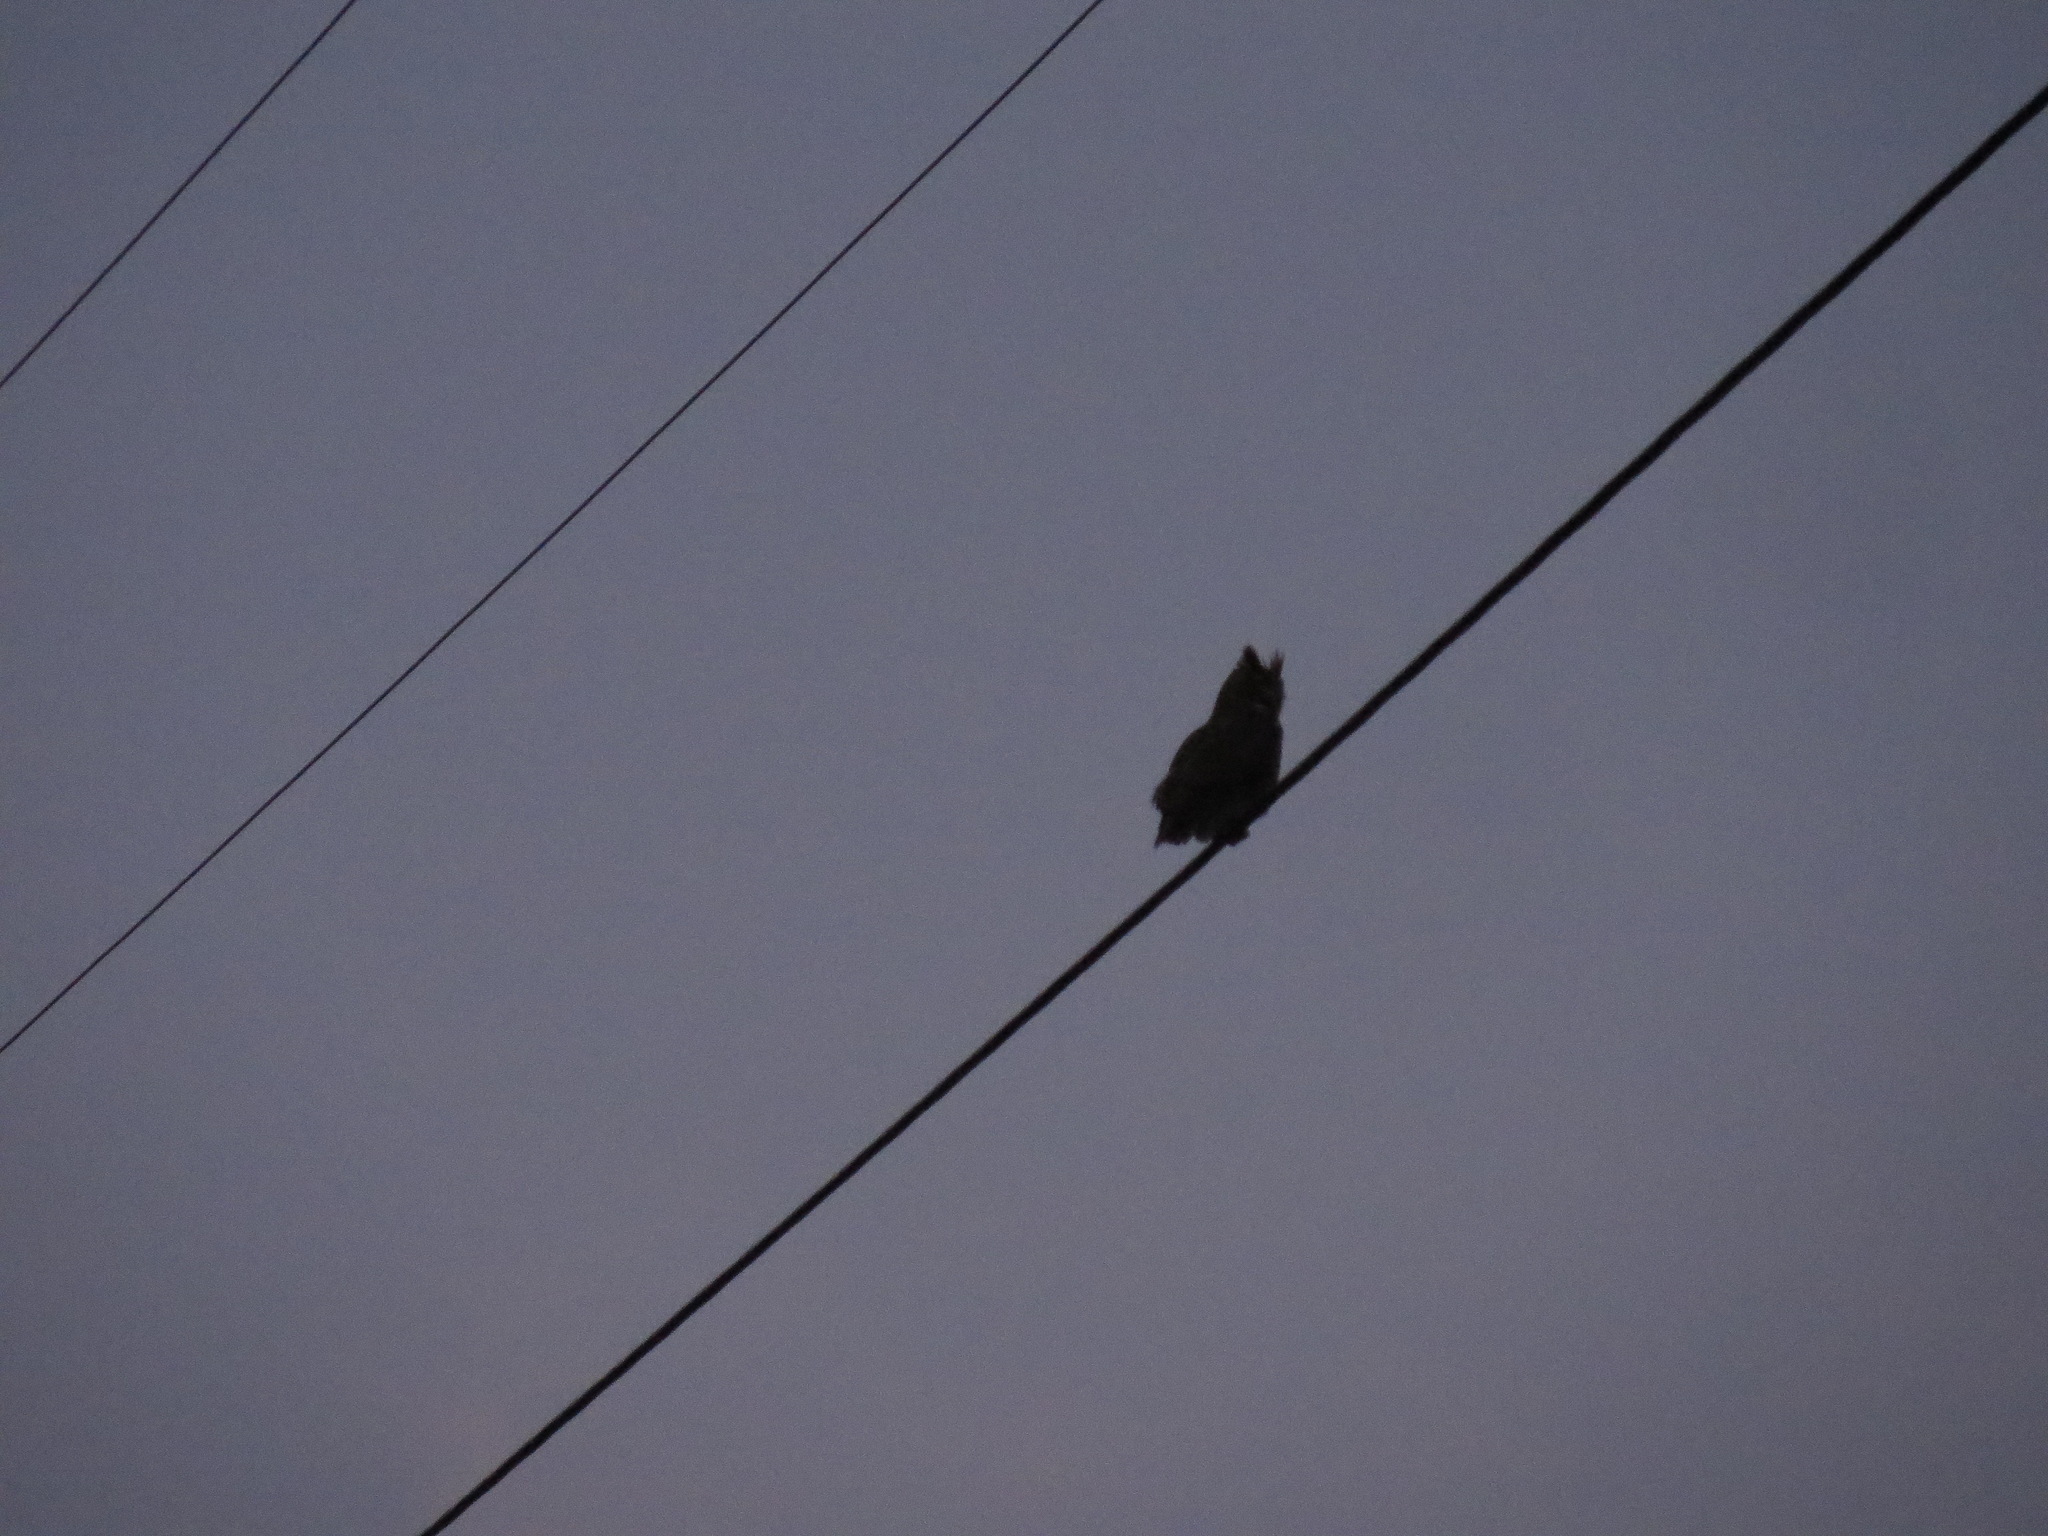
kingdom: Animalia
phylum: Chordata
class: Aves
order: Strigiformes
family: Strigidae
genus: Bubo
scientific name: Bubo virginianus
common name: Great horned owl
